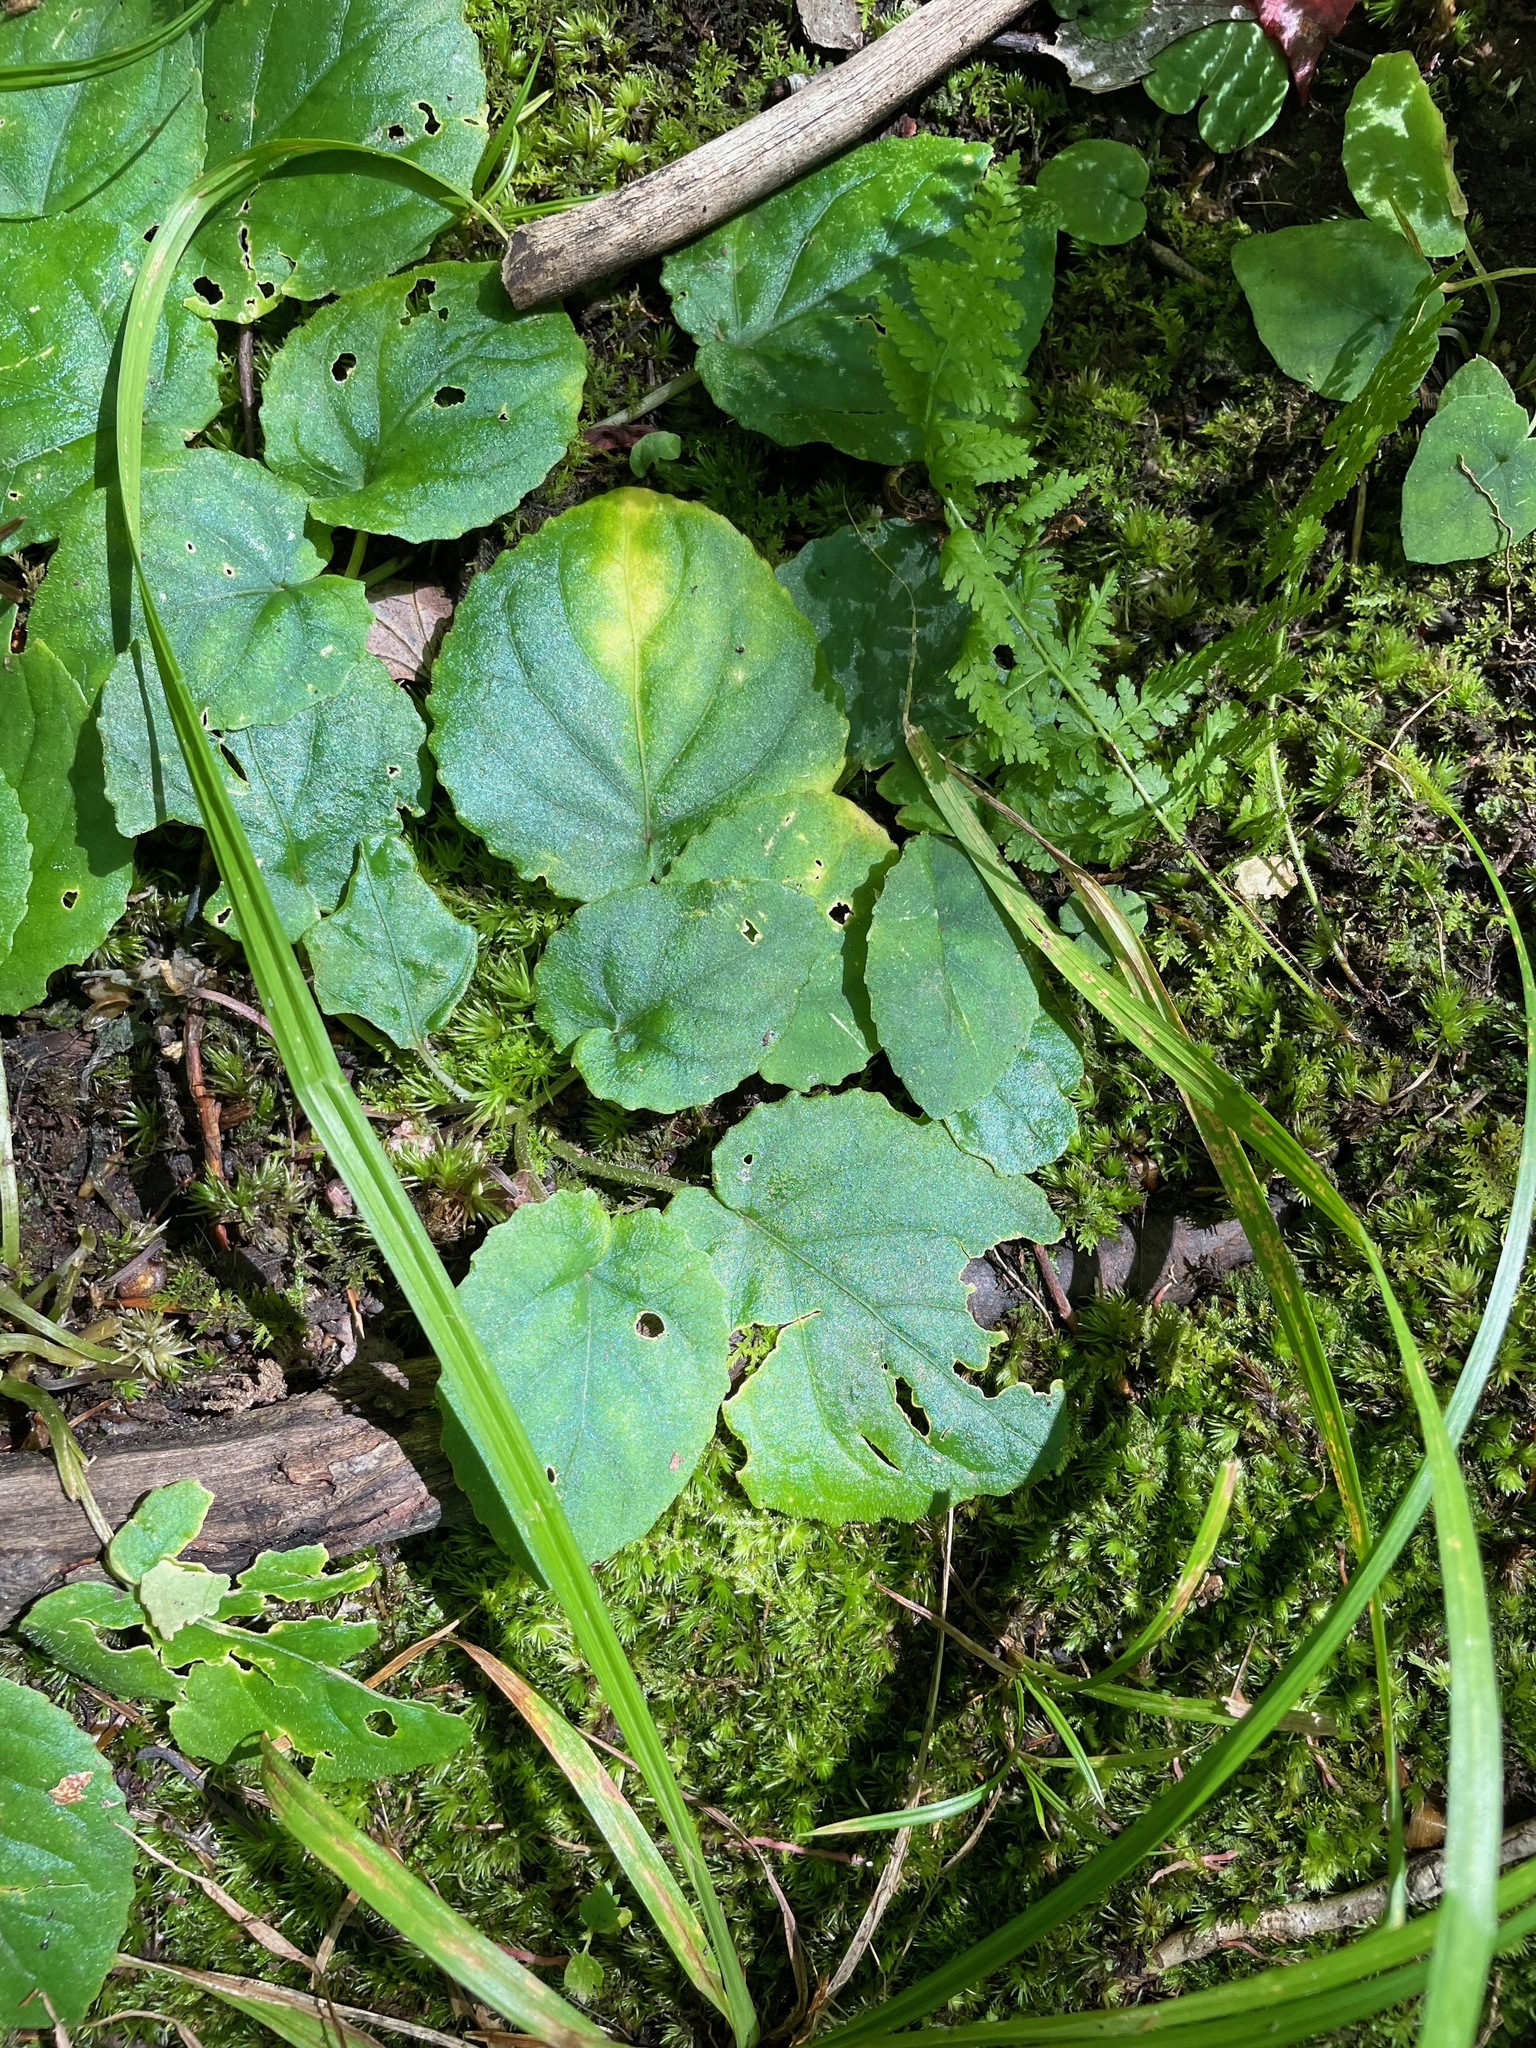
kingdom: Plantae
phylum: Tracheophyta
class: Magnoliopsida
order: Malpighiales
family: Violaceae
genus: Viola
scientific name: Viola rotundifolia
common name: Early yellow violet
